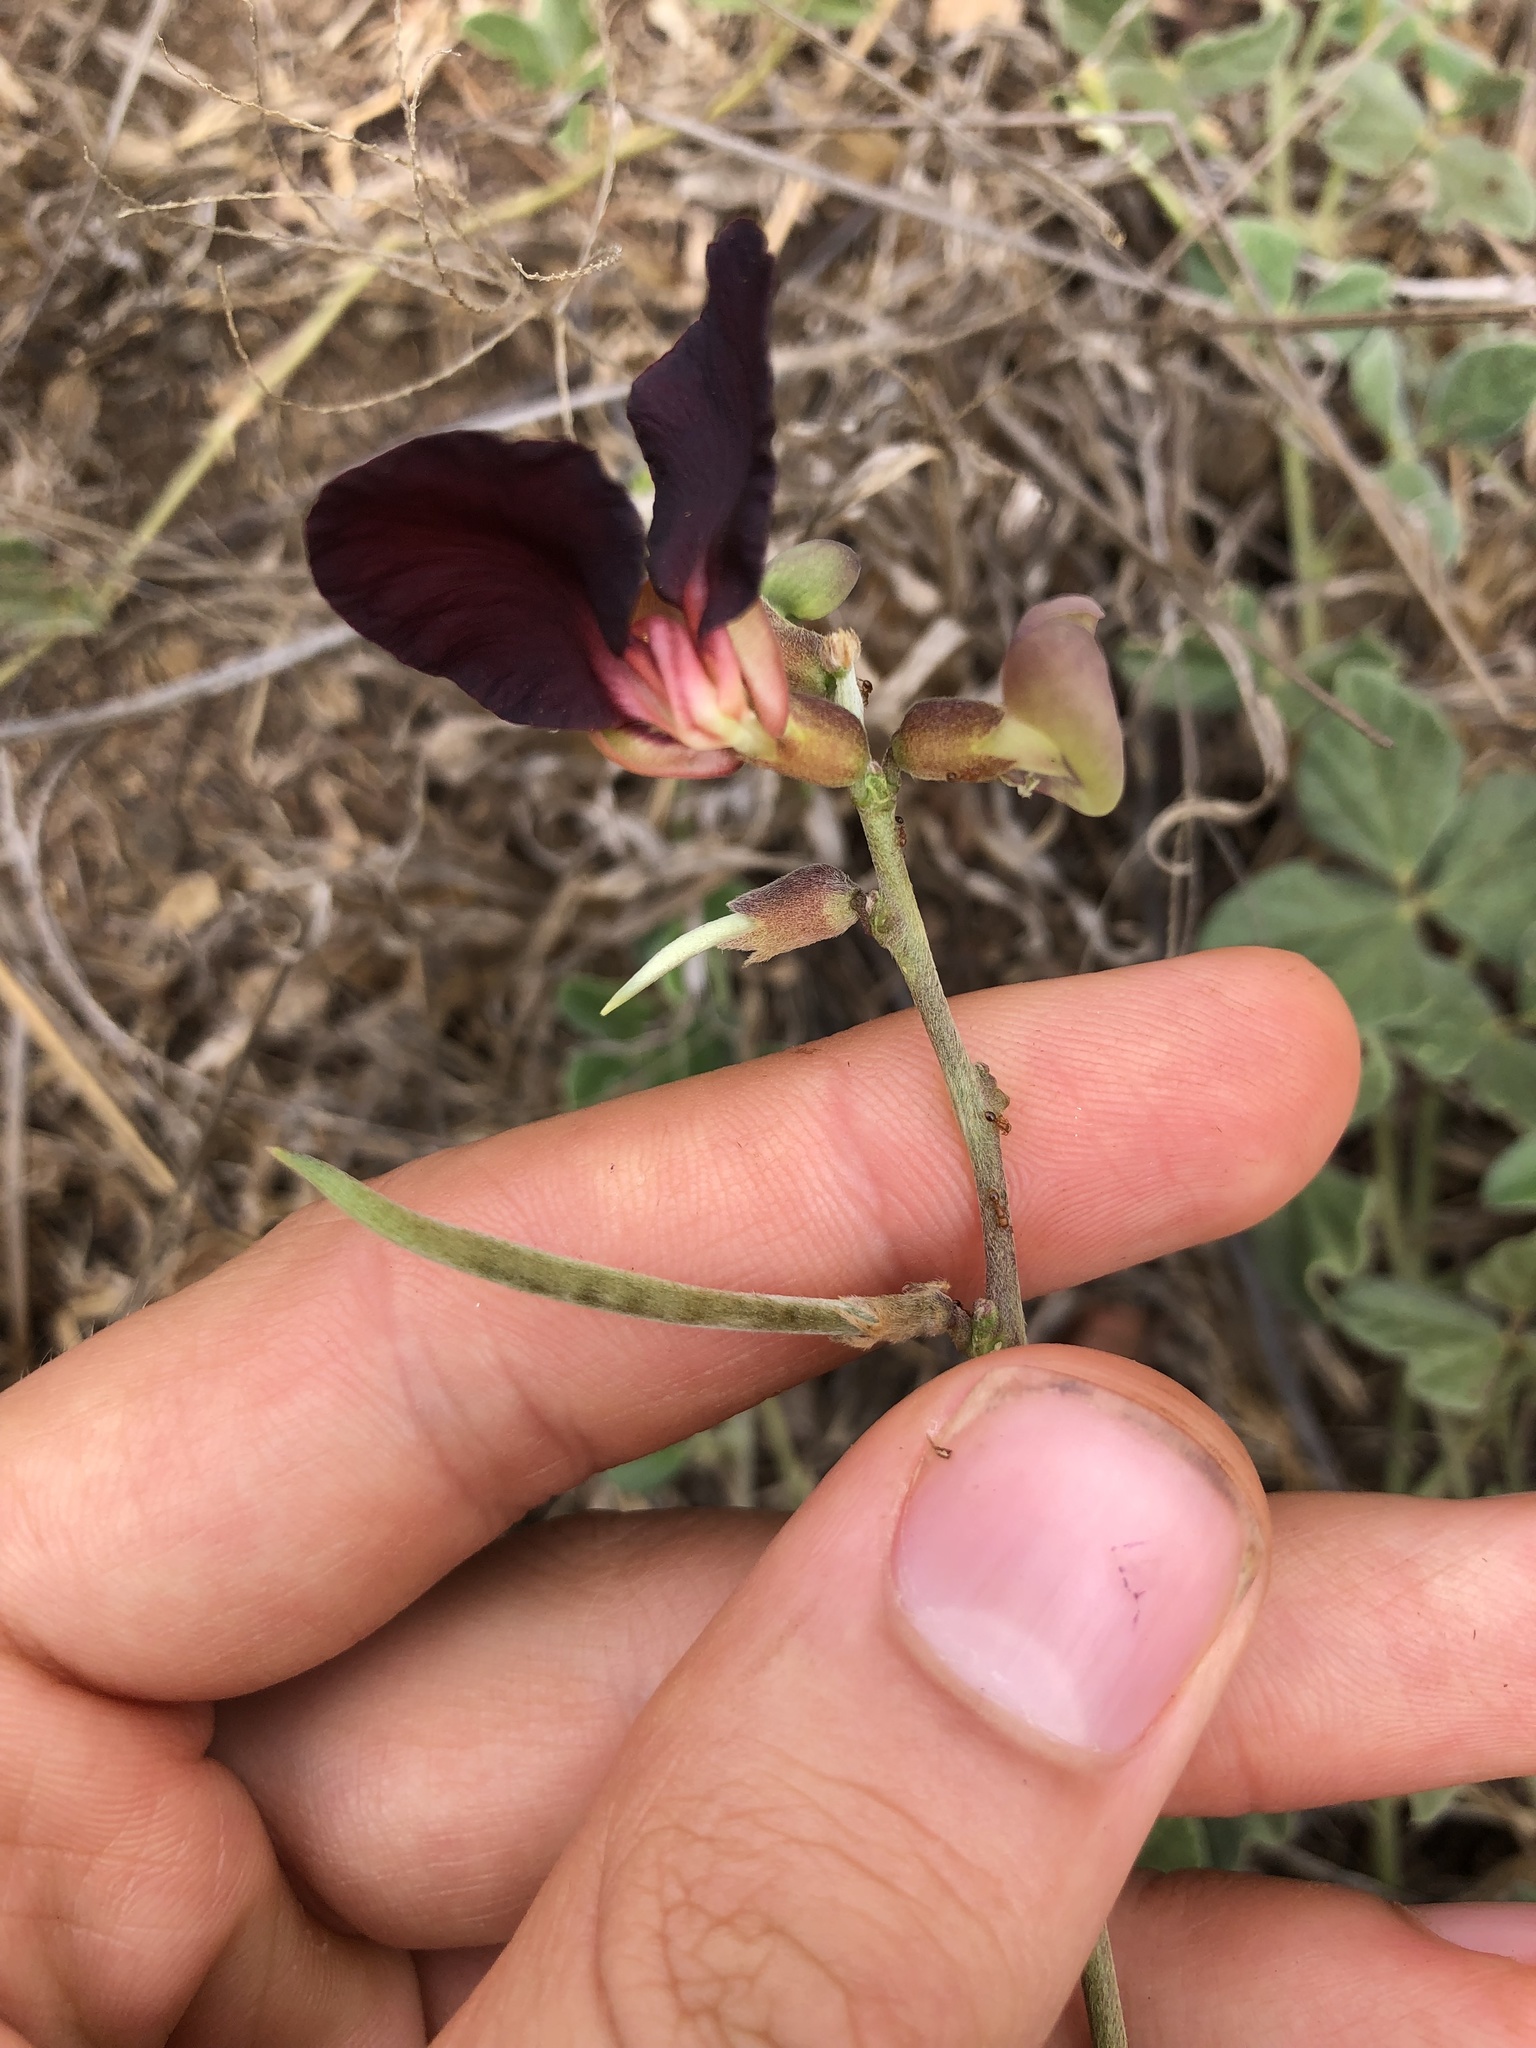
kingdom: Plantae
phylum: Tracheophyta
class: Magnoliopsida
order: Fabales
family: Fabaceae
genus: Macroptilium
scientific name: Macroptilium atropurpureum
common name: Purple bushbean
